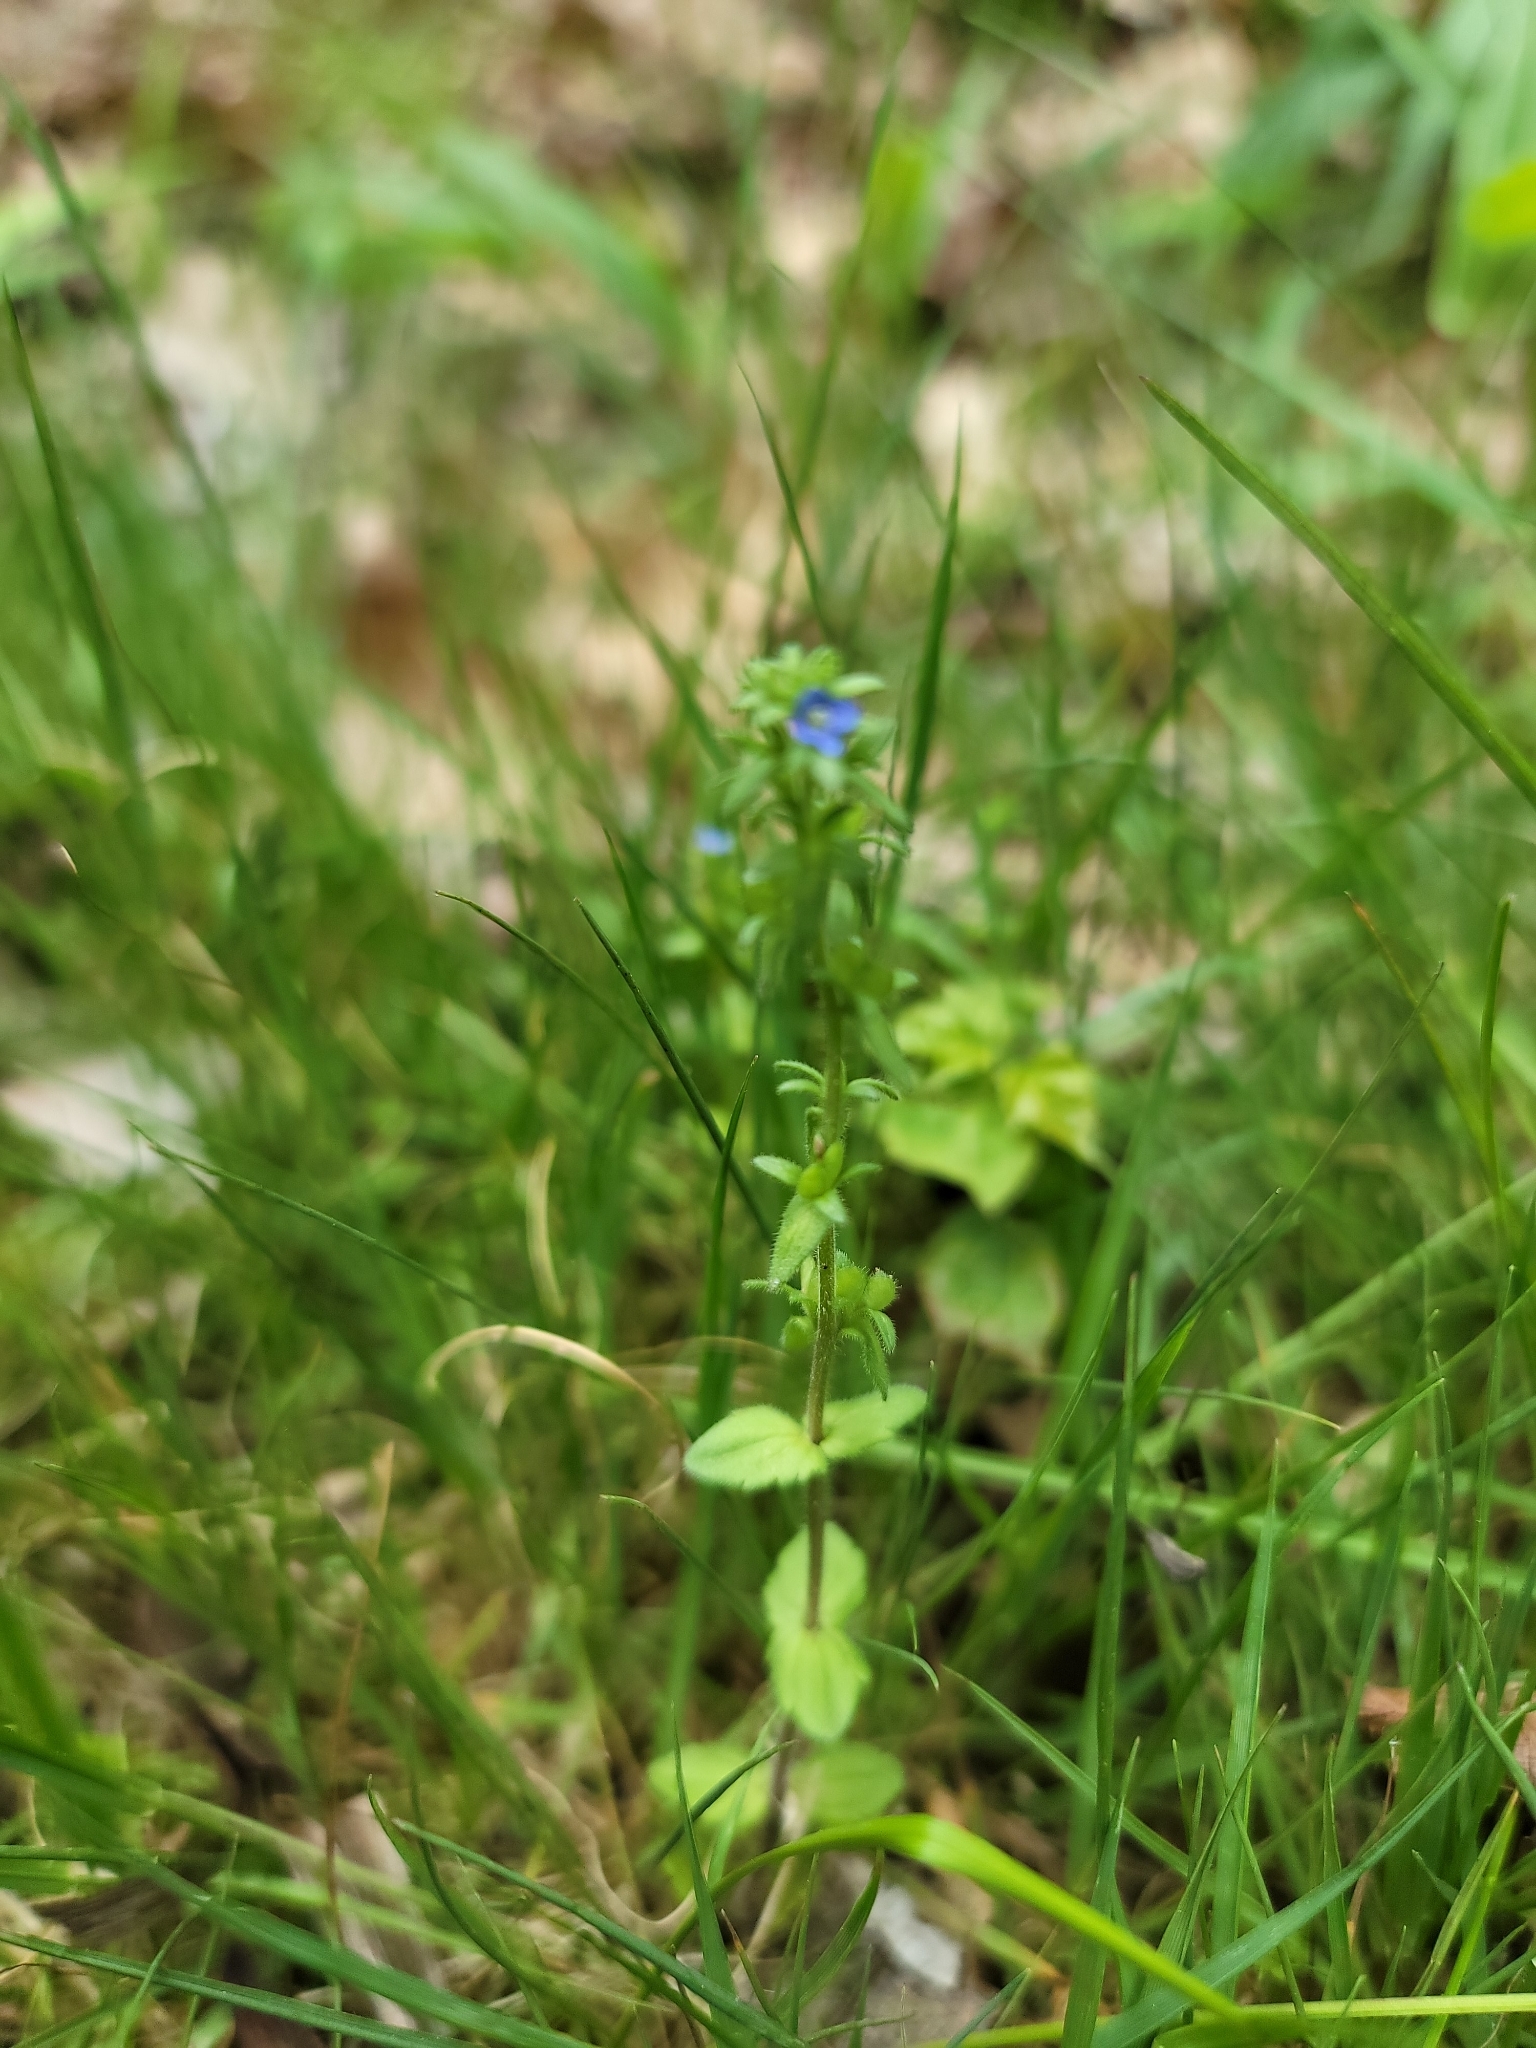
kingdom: Plantae
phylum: Tracheophyta
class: Magnoliopsida
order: Lamiales
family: Plantaginaceae
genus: Veronica
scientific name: Veronica arvensis
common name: Corn speedwell
